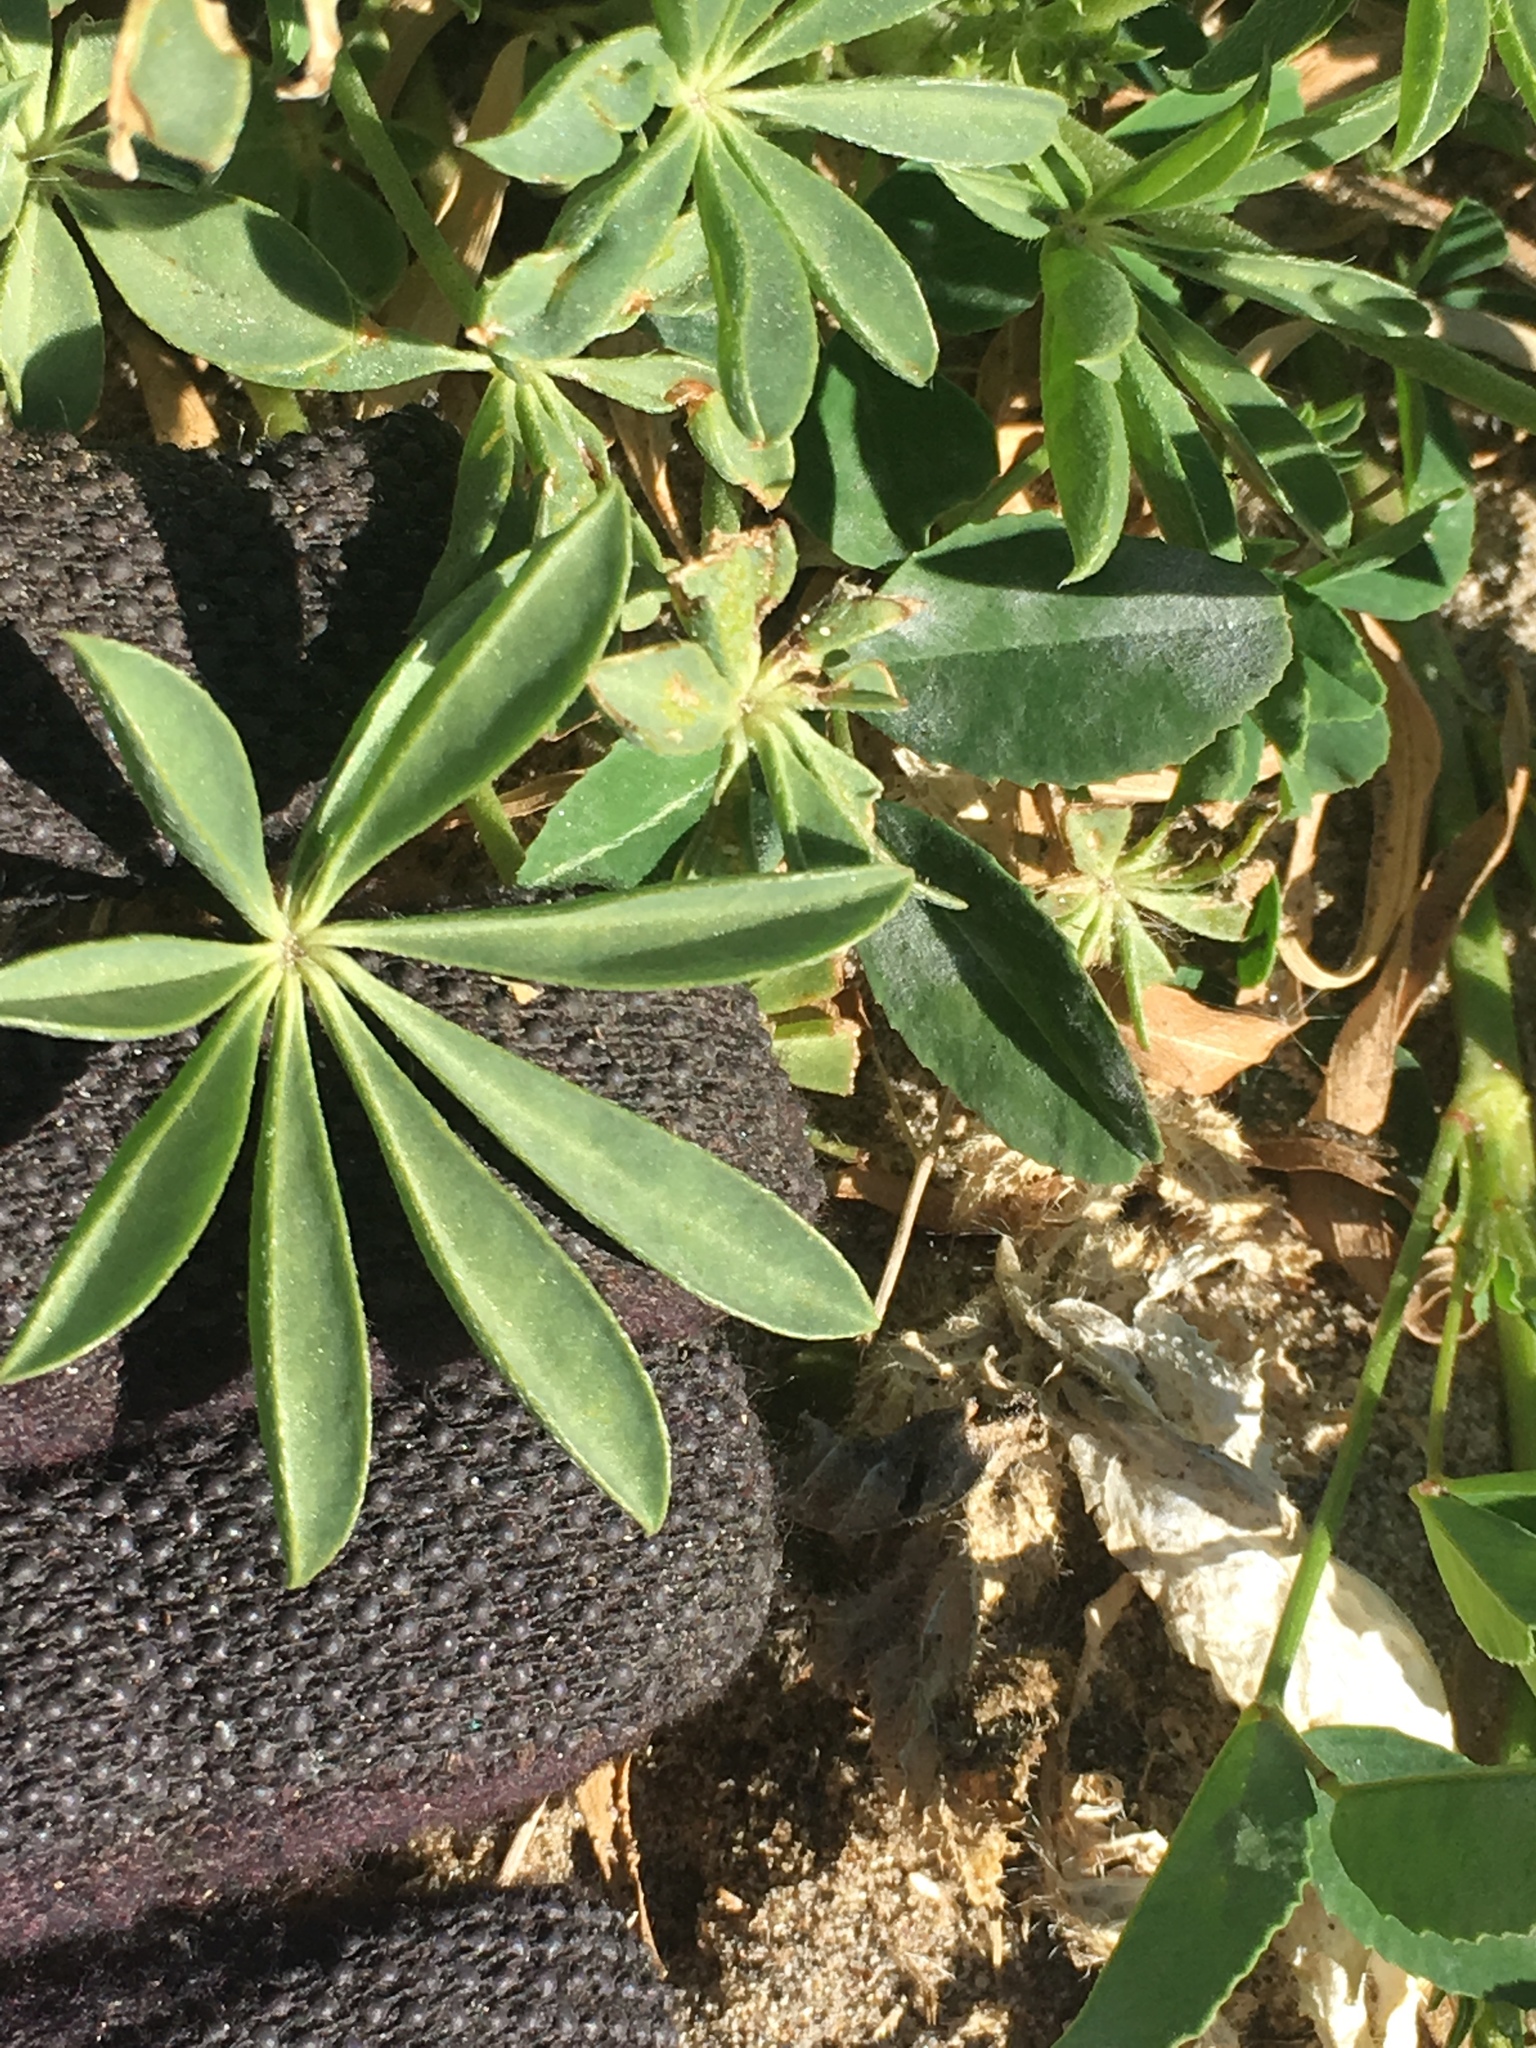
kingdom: Plantae
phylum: Tracheophyta
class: Magnoliopsida
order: Fabales
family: Fabaceae
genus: Lupinus
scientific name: Lupinus arizonicus
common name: Arizona lupine
